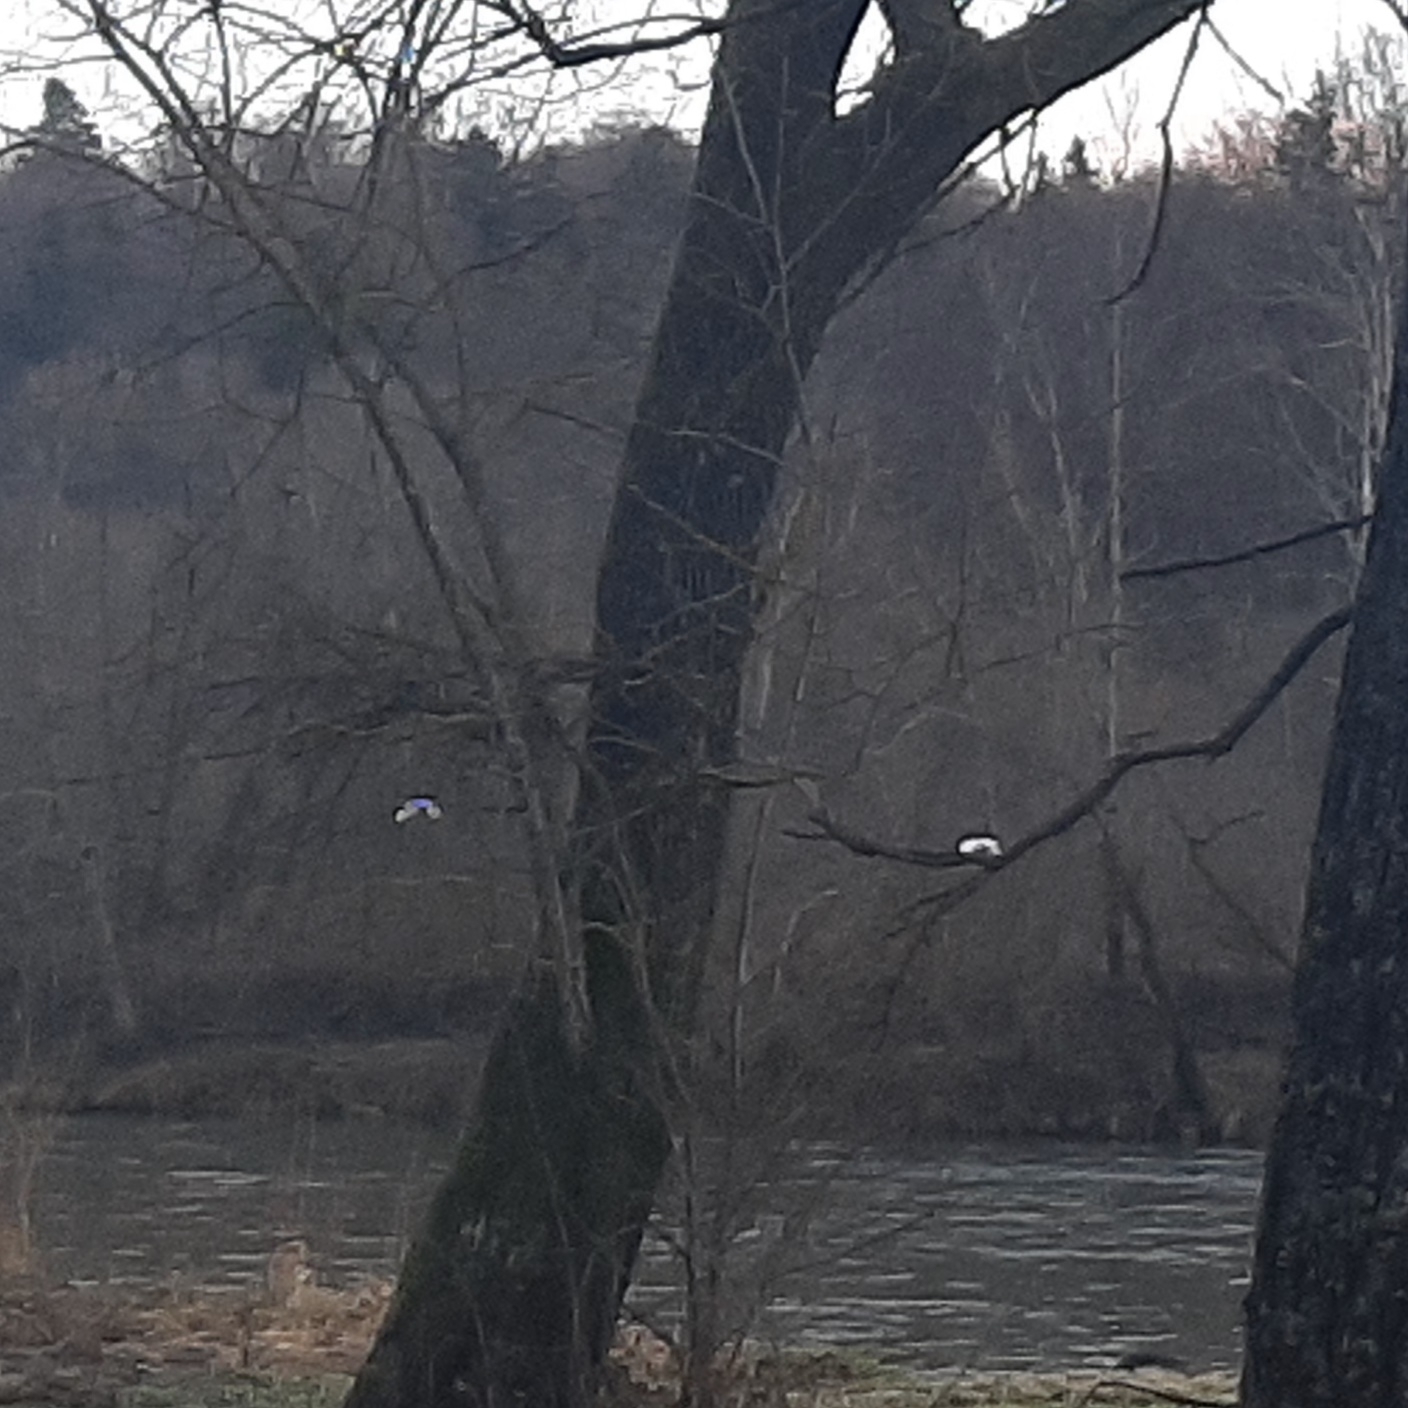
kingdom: Animalia
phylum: Chordata
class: Aves
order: Pelecaniformes
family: Ardeidae
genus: Ardea
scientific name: Ardea alba
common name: Great egret
